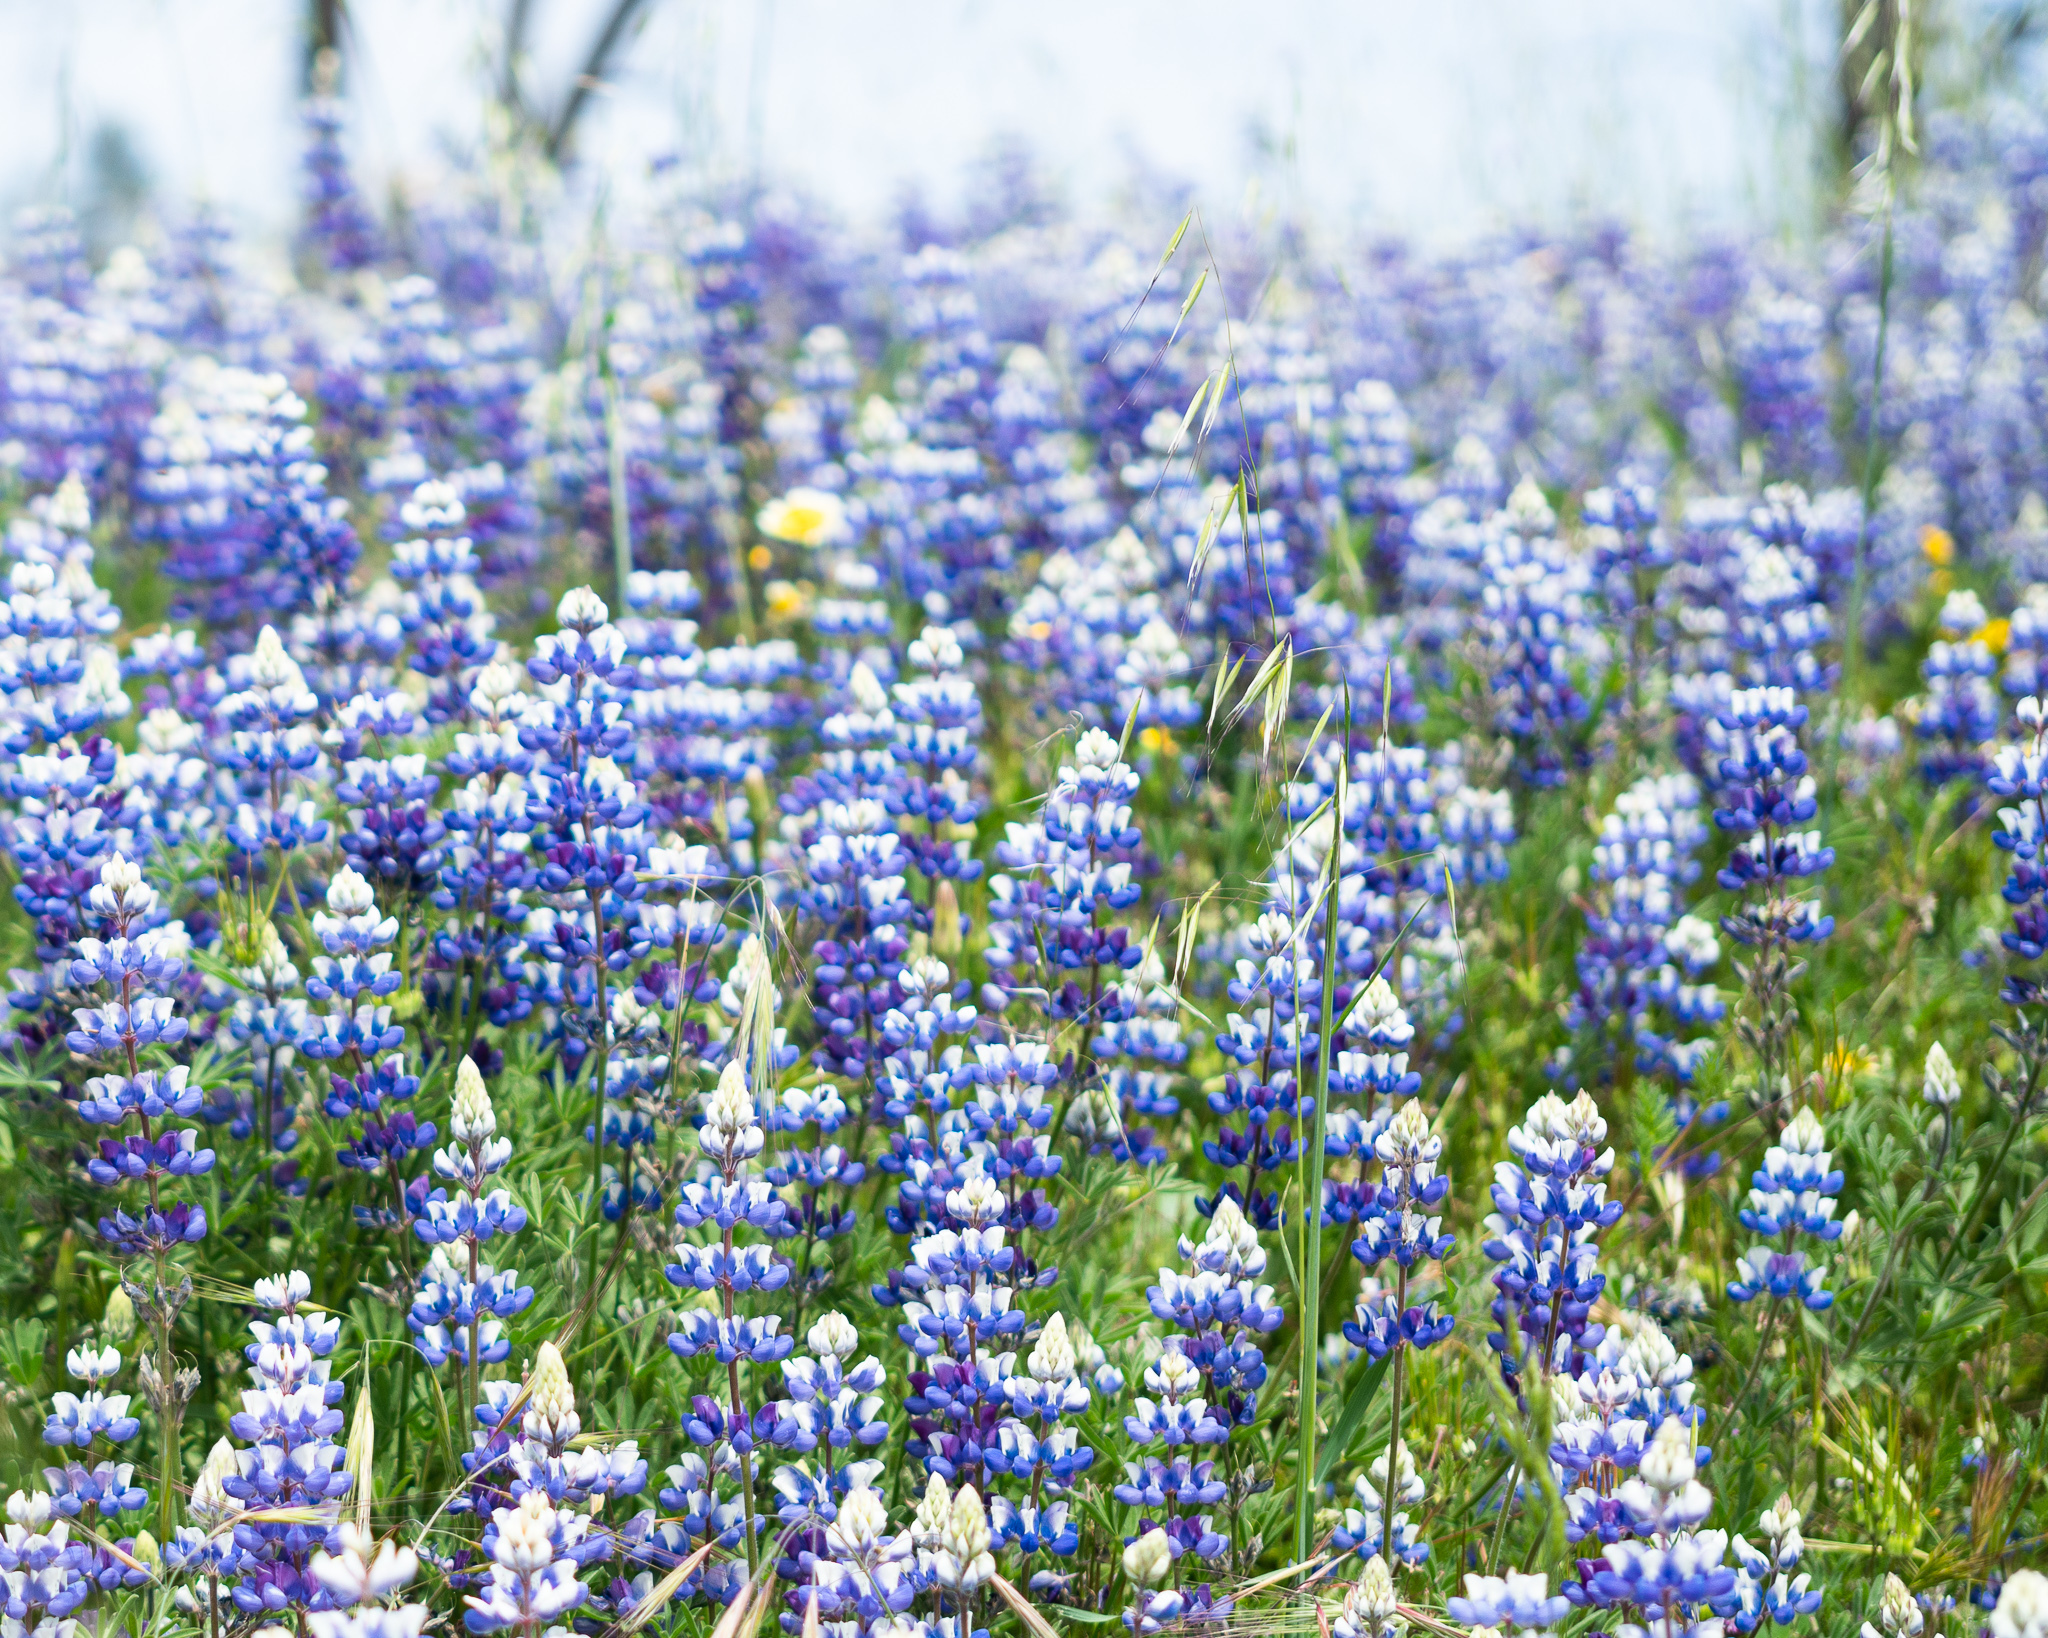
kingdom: Plantae
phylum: Tracheophyta
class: Magnoliopsida
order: Fabales
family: Fabaceae
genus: Lupinus
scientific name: Lupinus nanus
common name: Orean blue lupin
